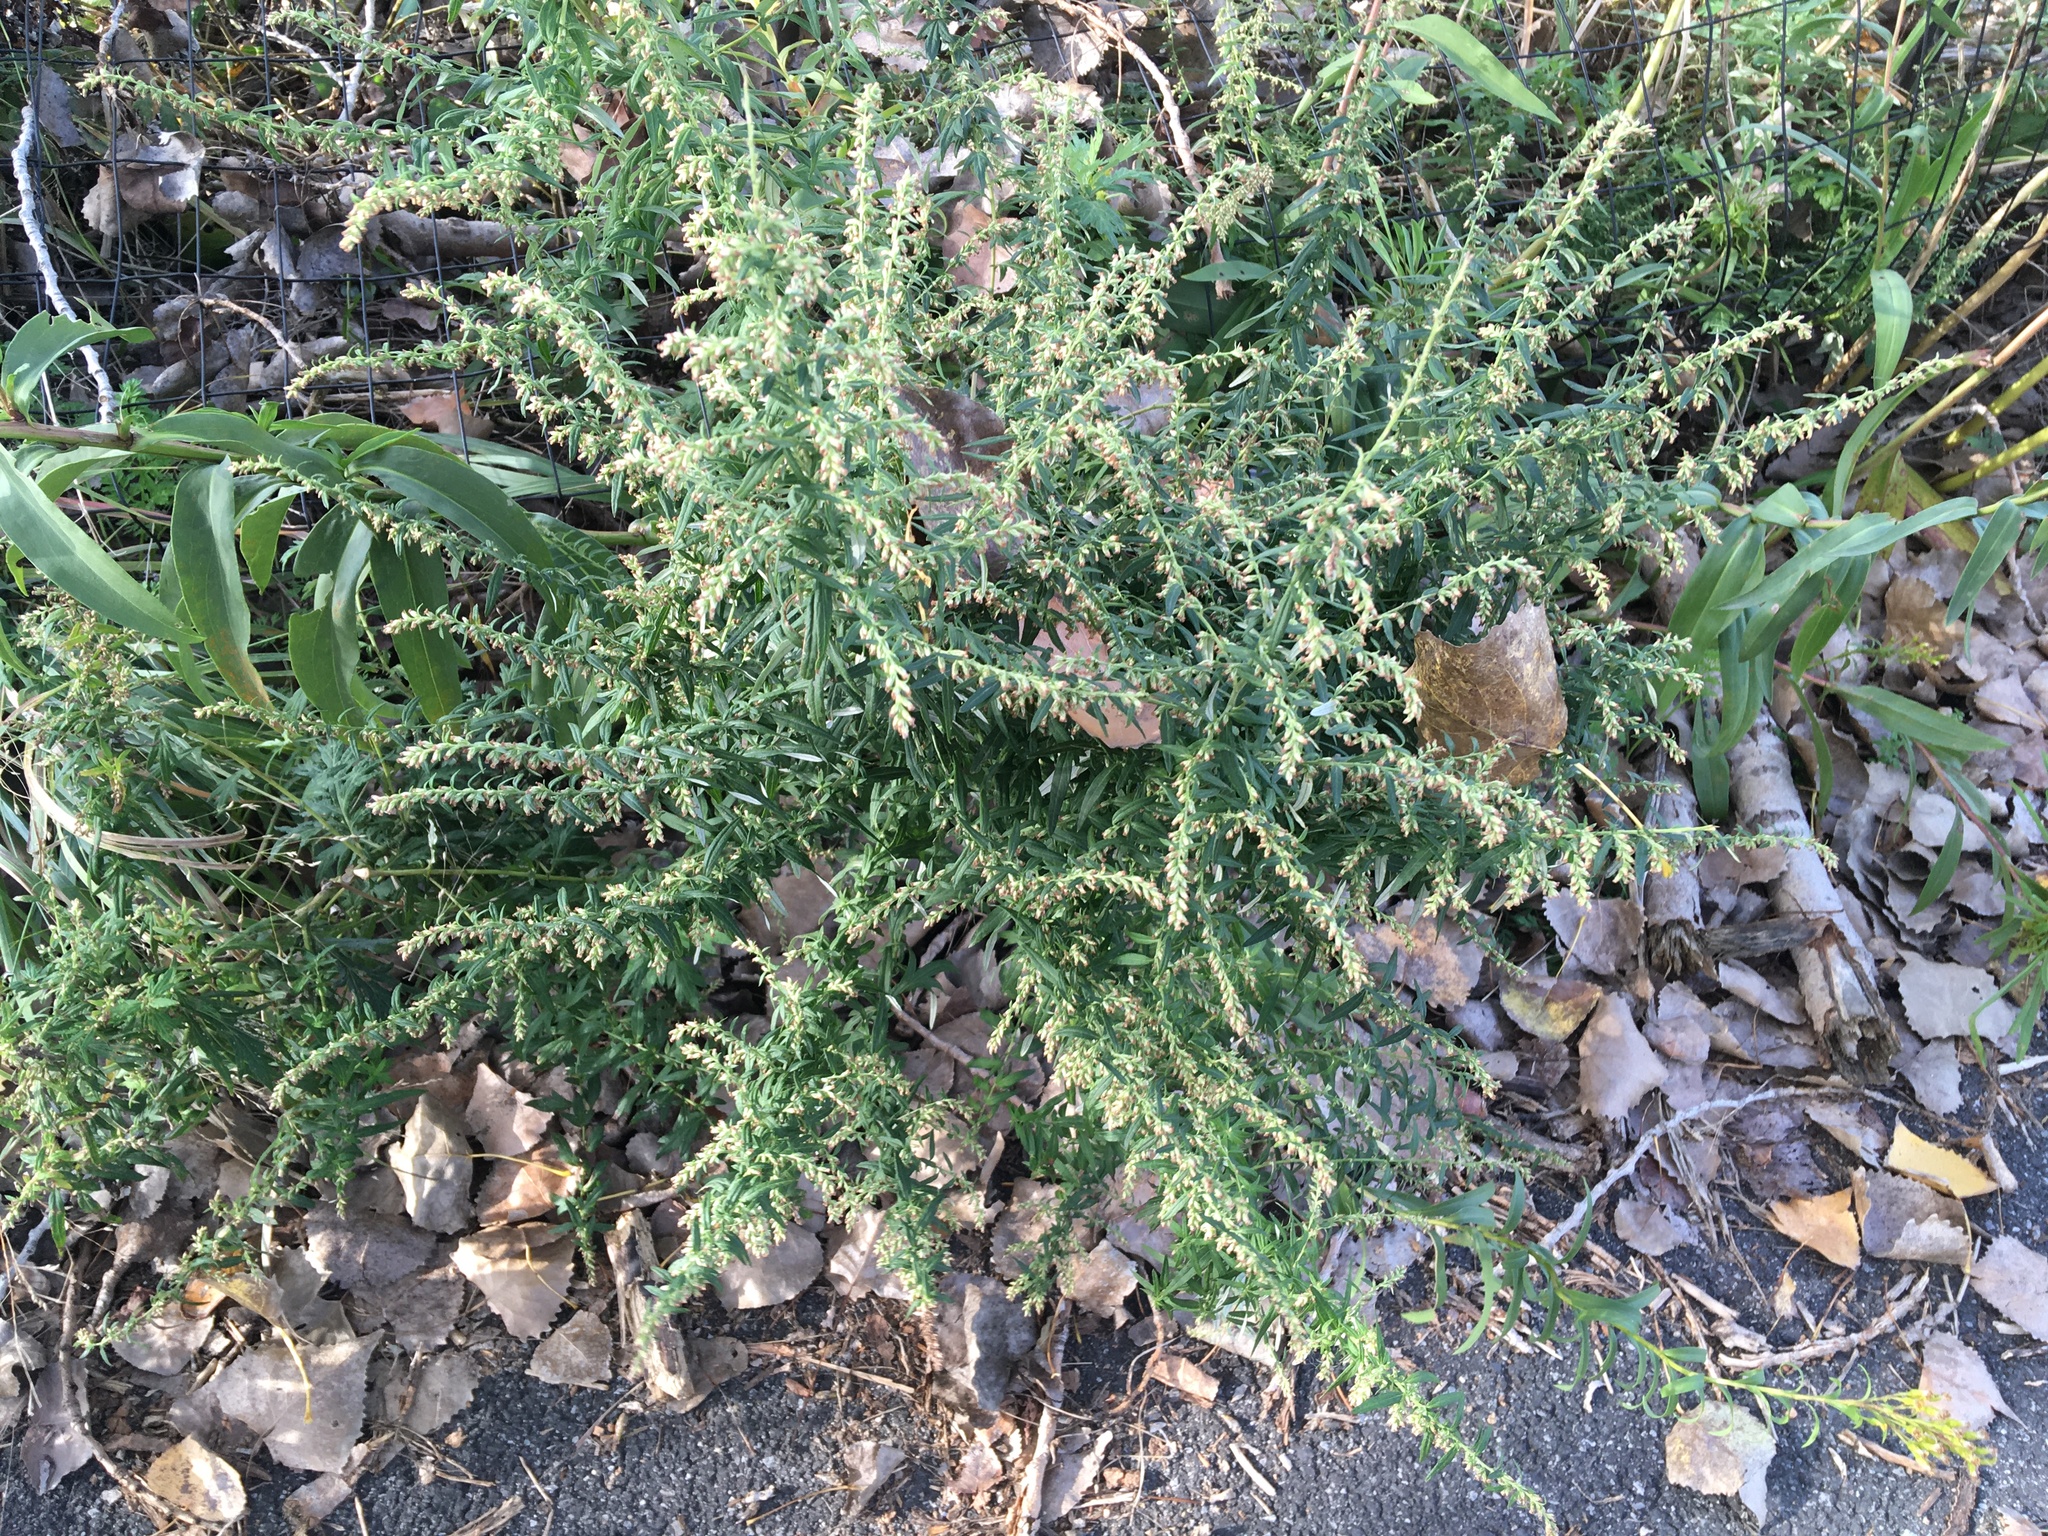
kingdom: Plantae
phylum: Tracheophyta
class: Magnoliopsida
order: Asterales
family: Asteraceae
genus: Artemisia
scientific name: Artemisia vulgaris
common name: Mugwort
